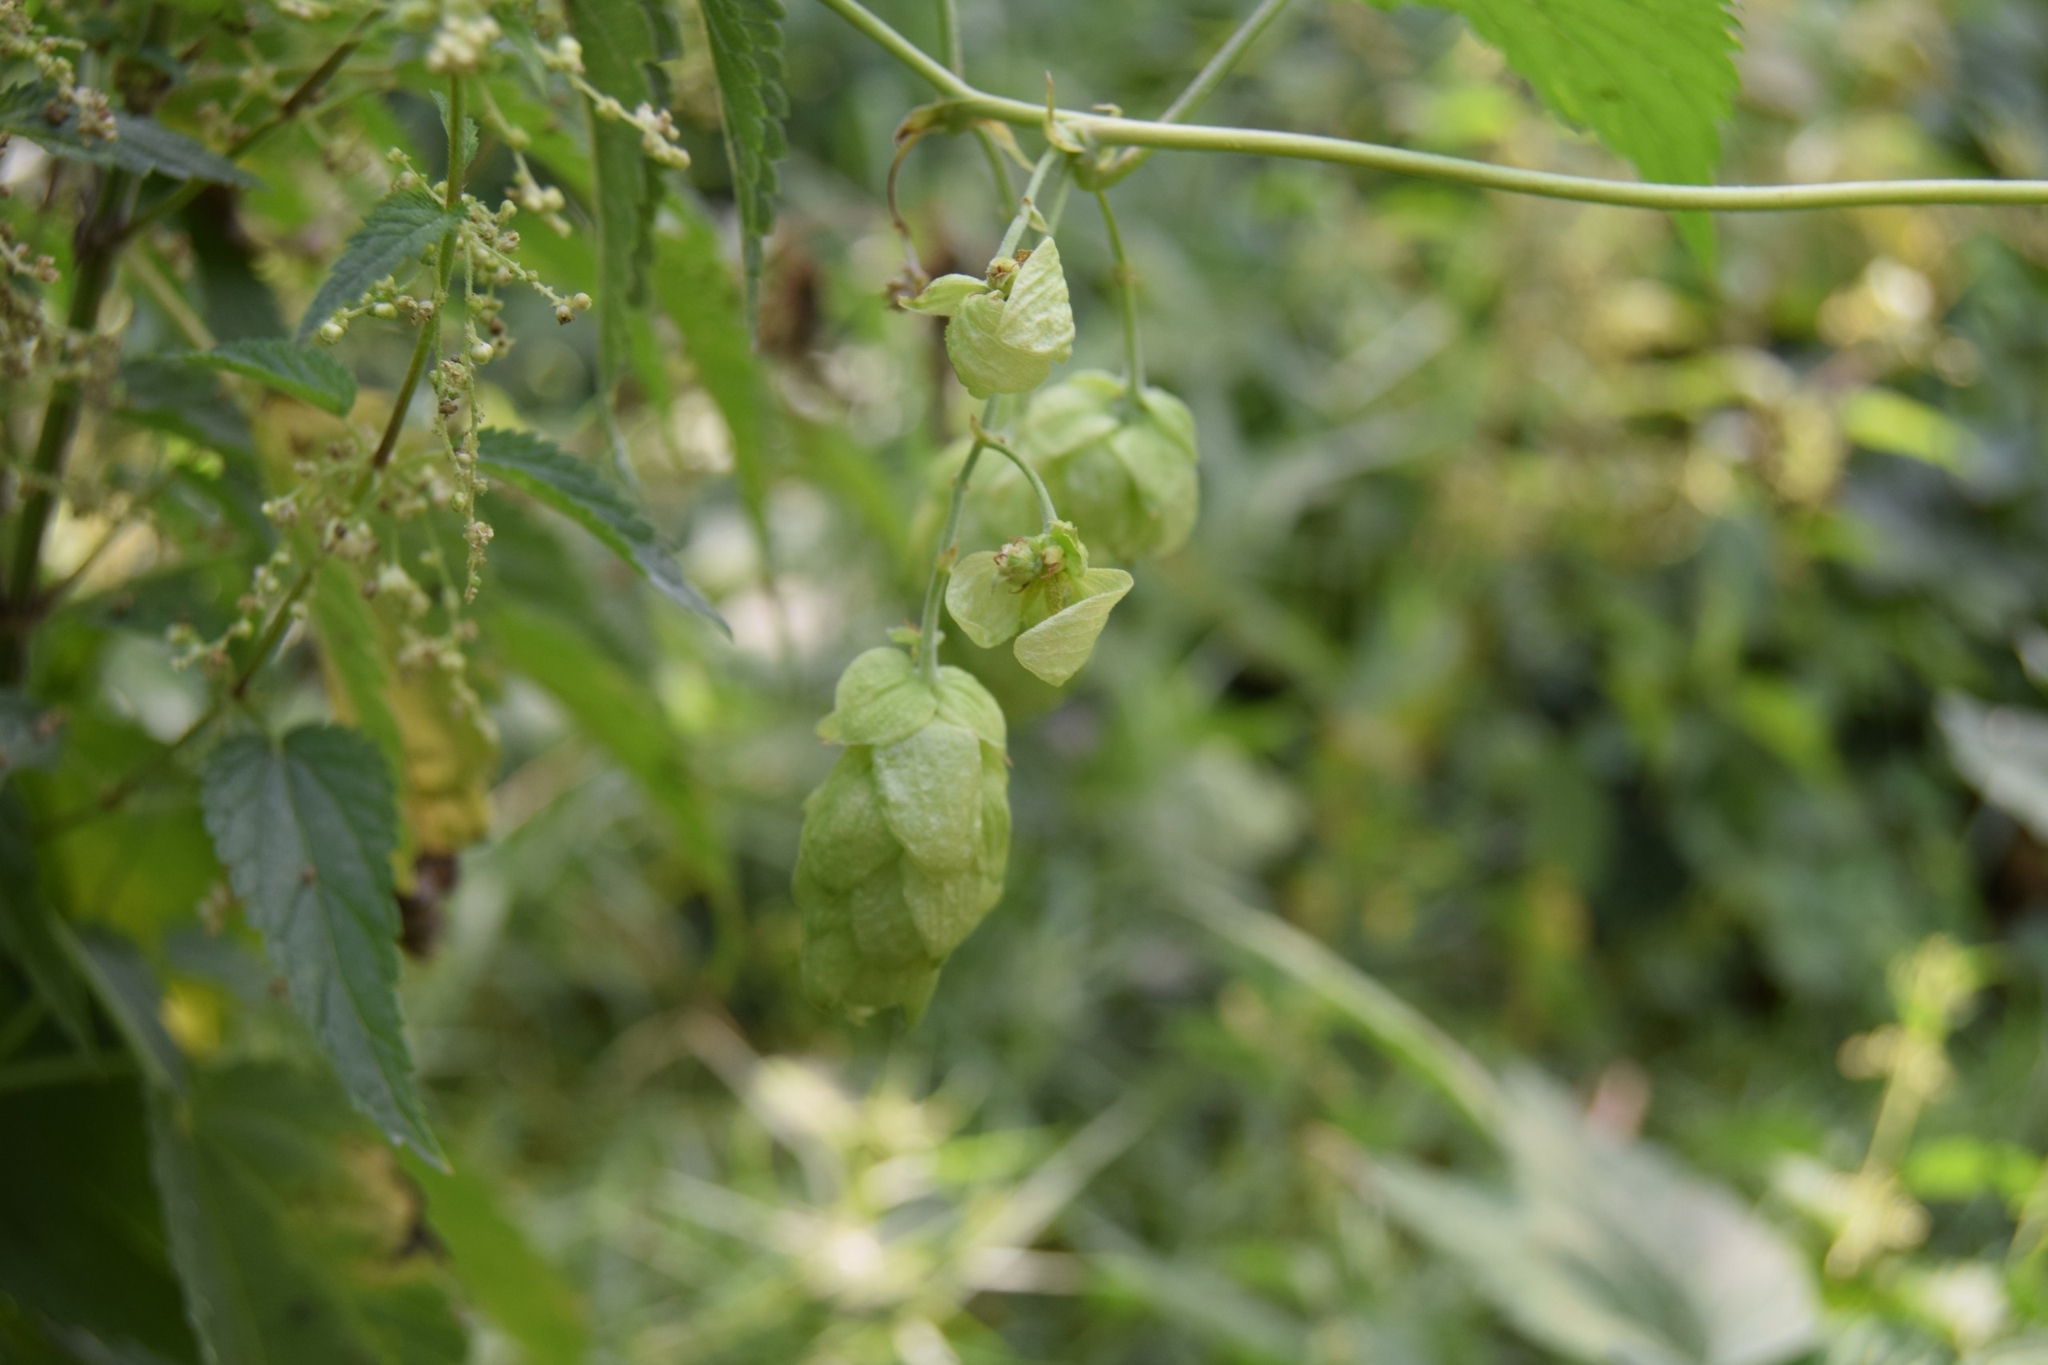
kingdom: Plantae
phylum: Tracheophyta
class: Magnoliopsida
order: Rosales
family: Cannabaceae
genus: Humulus
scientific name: Humulus lupulus
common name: Hop
